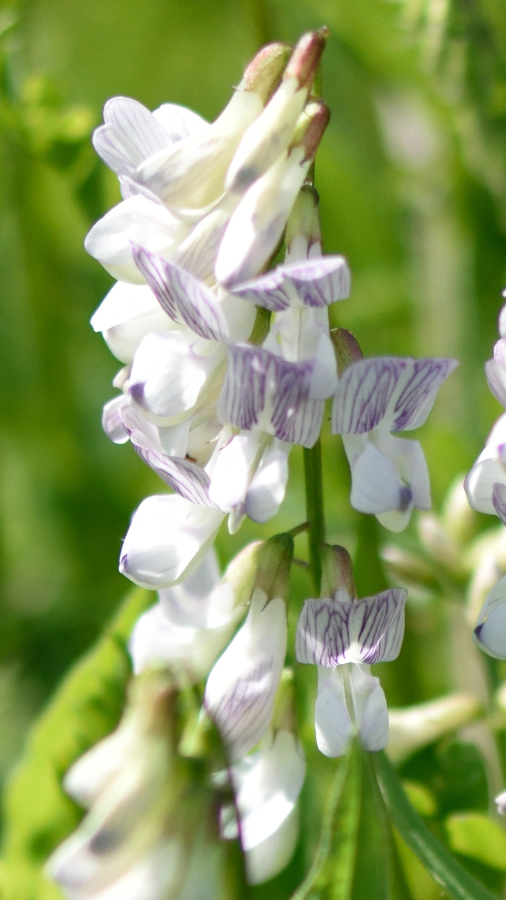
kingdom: Plantae
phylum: Tracheophyta
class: Magnoliopsida
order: Fabales
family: Fabaceae
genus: Vicia
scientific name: Vicia sylvatica
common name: Wood vetch
